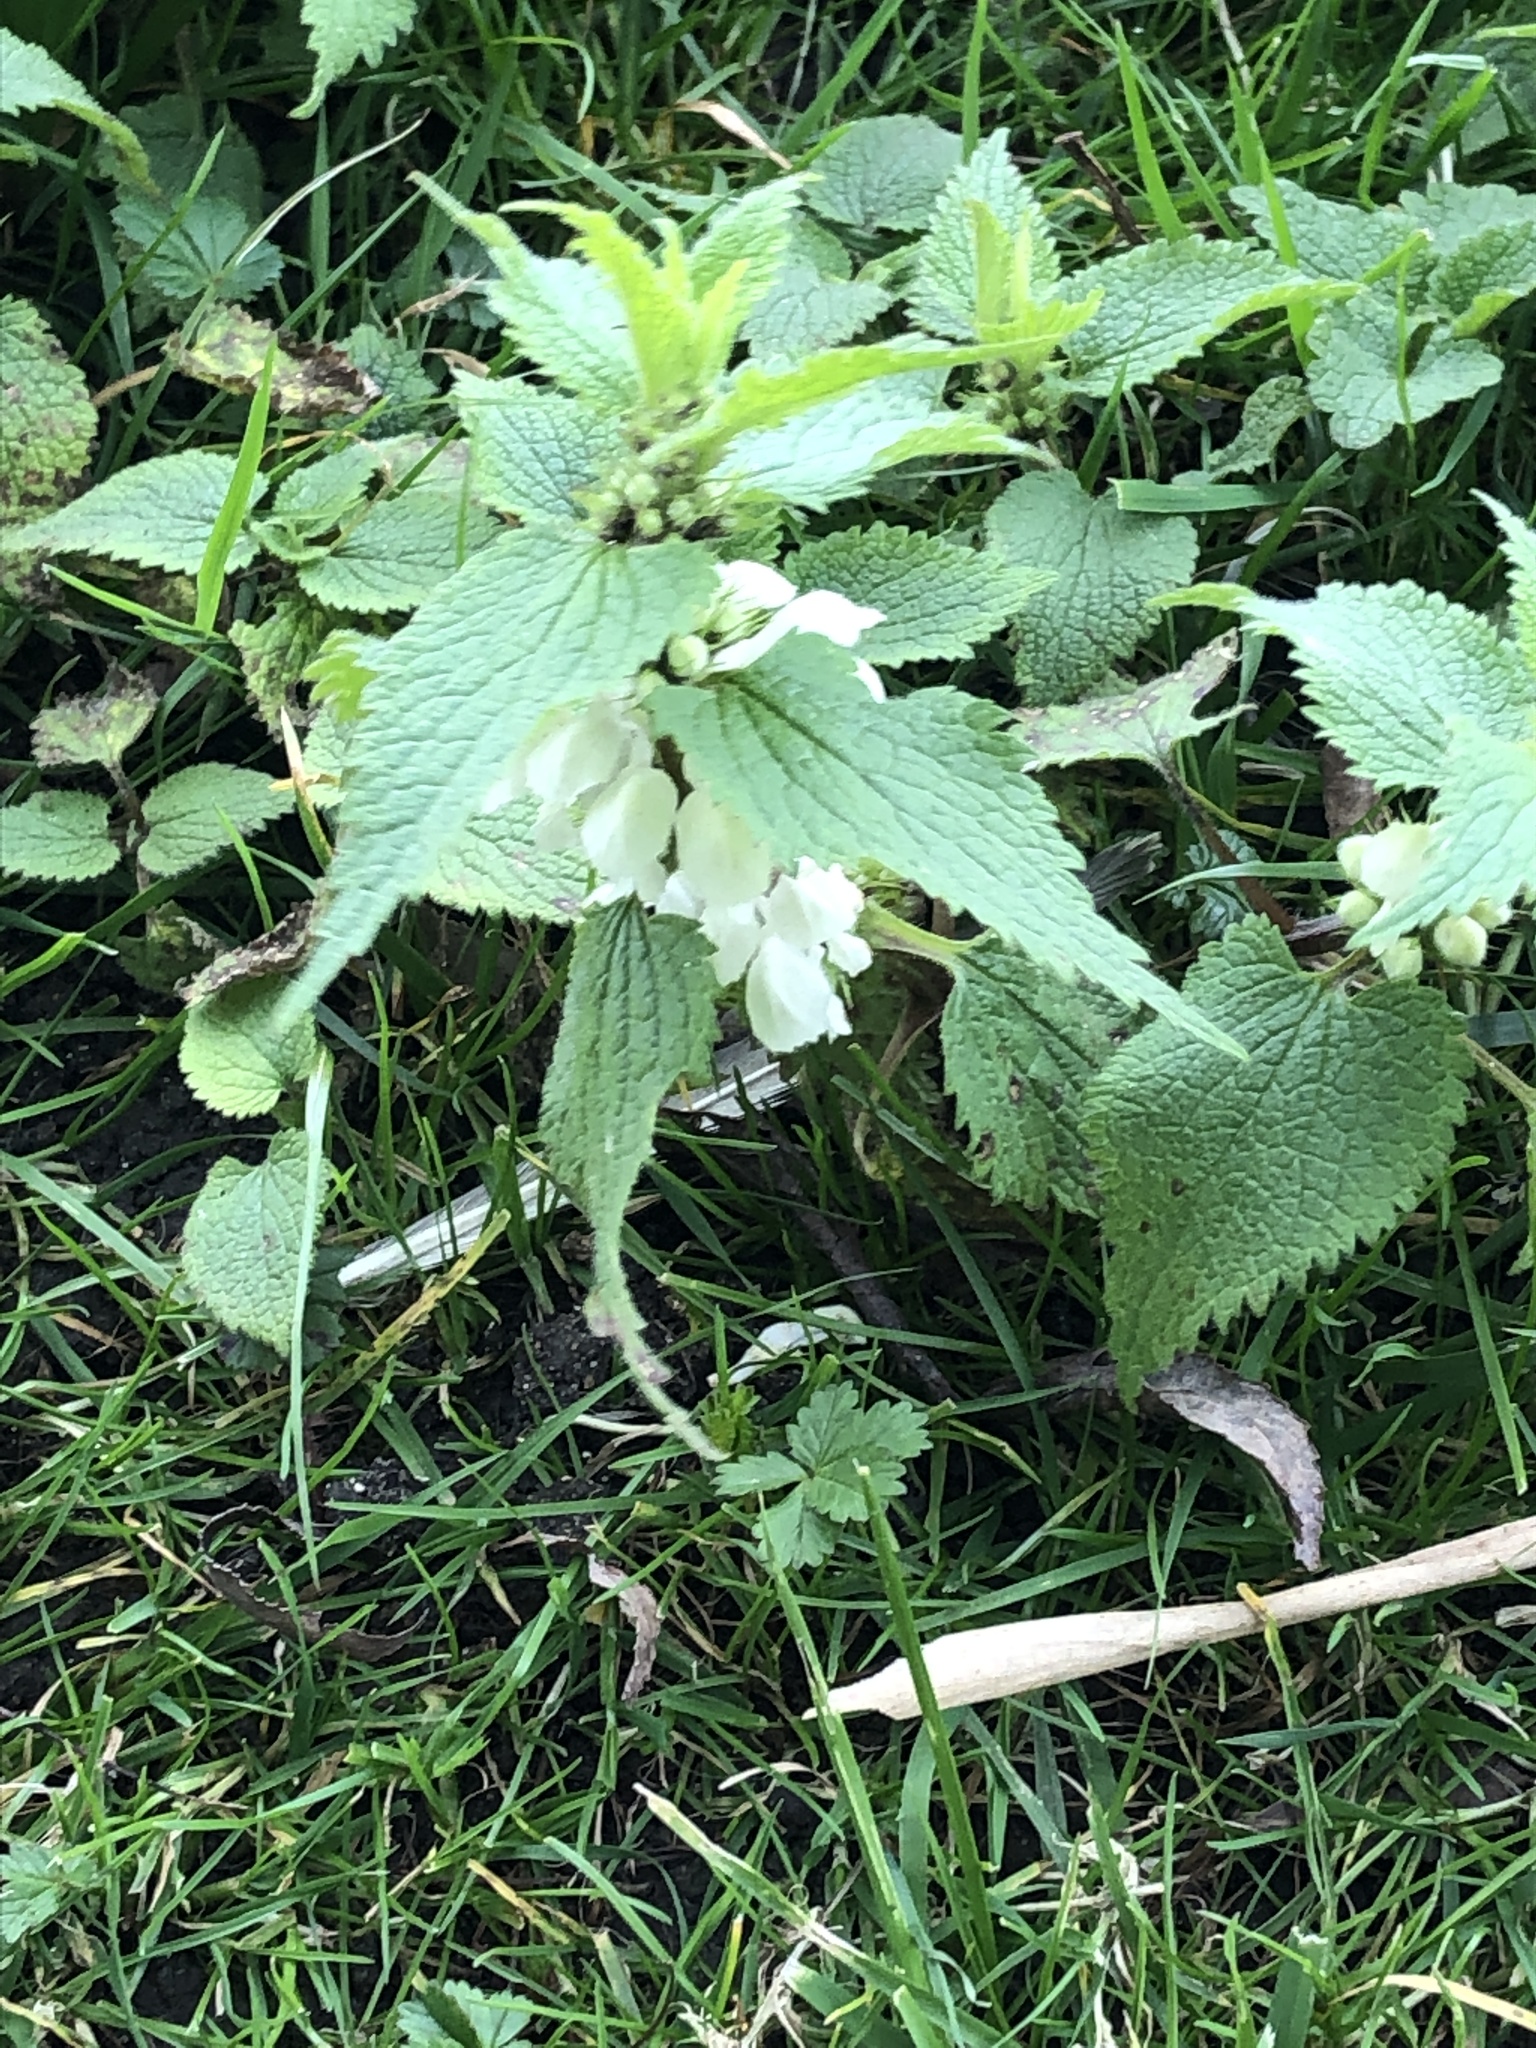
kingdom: Plantae
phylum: Tracheophyta
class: Magnoliopsida
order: Lamiales
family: Lamiaceae
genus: Lamium
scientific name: Lamium album
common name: White dead-nettle
